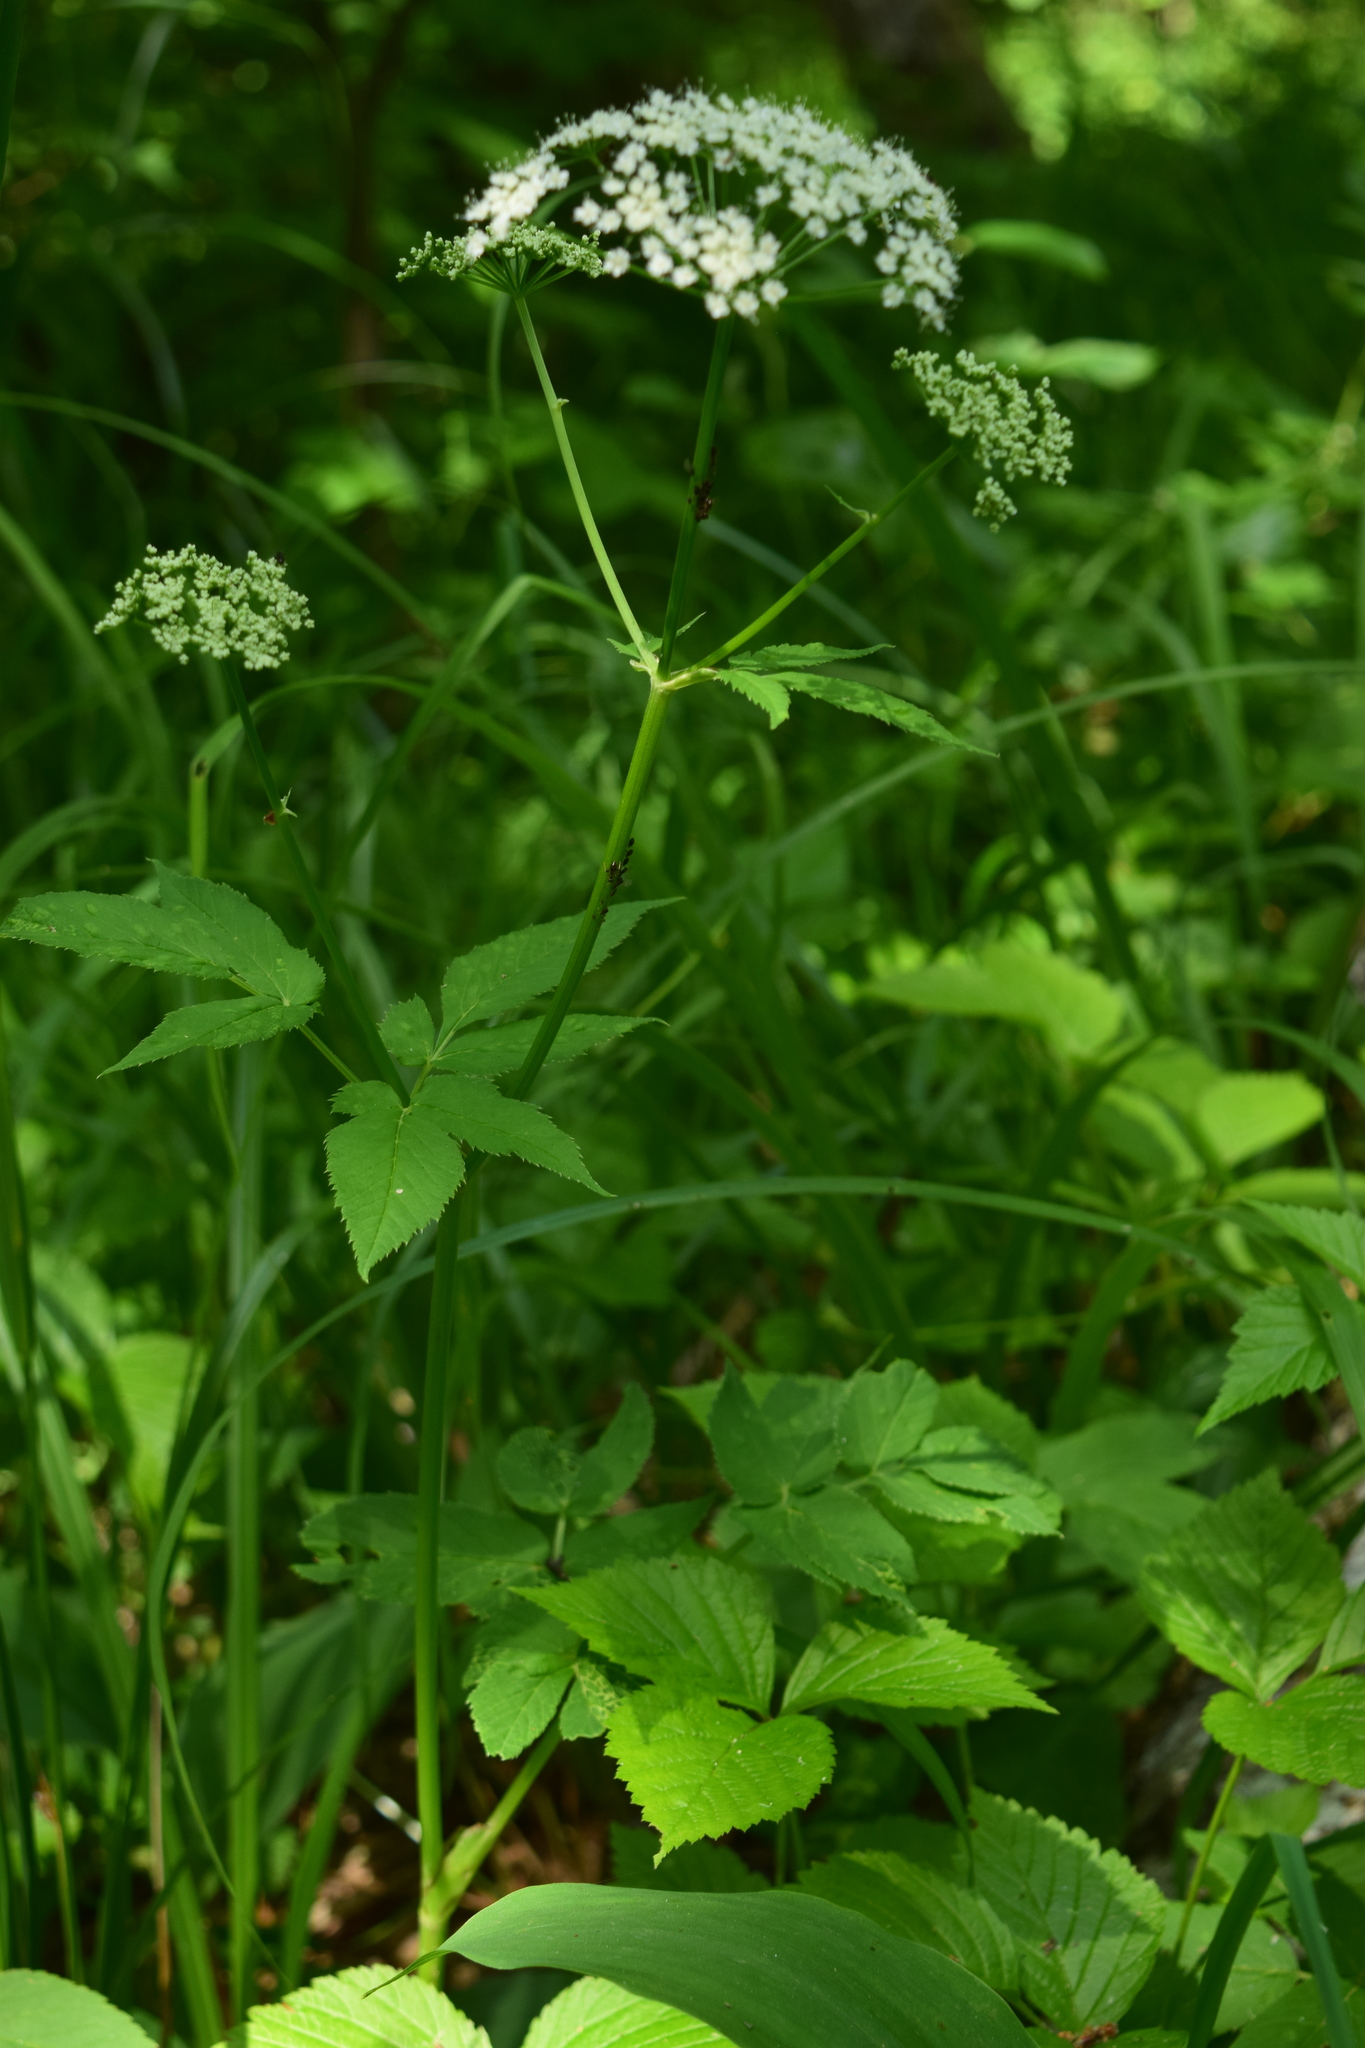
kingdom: Plantae
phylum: Tracheophyta
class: Magnoliopsida
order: Apiales
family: Apiaceae
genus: Aegopodium
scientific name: Aegopodium podagraria
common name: Ground-elder
